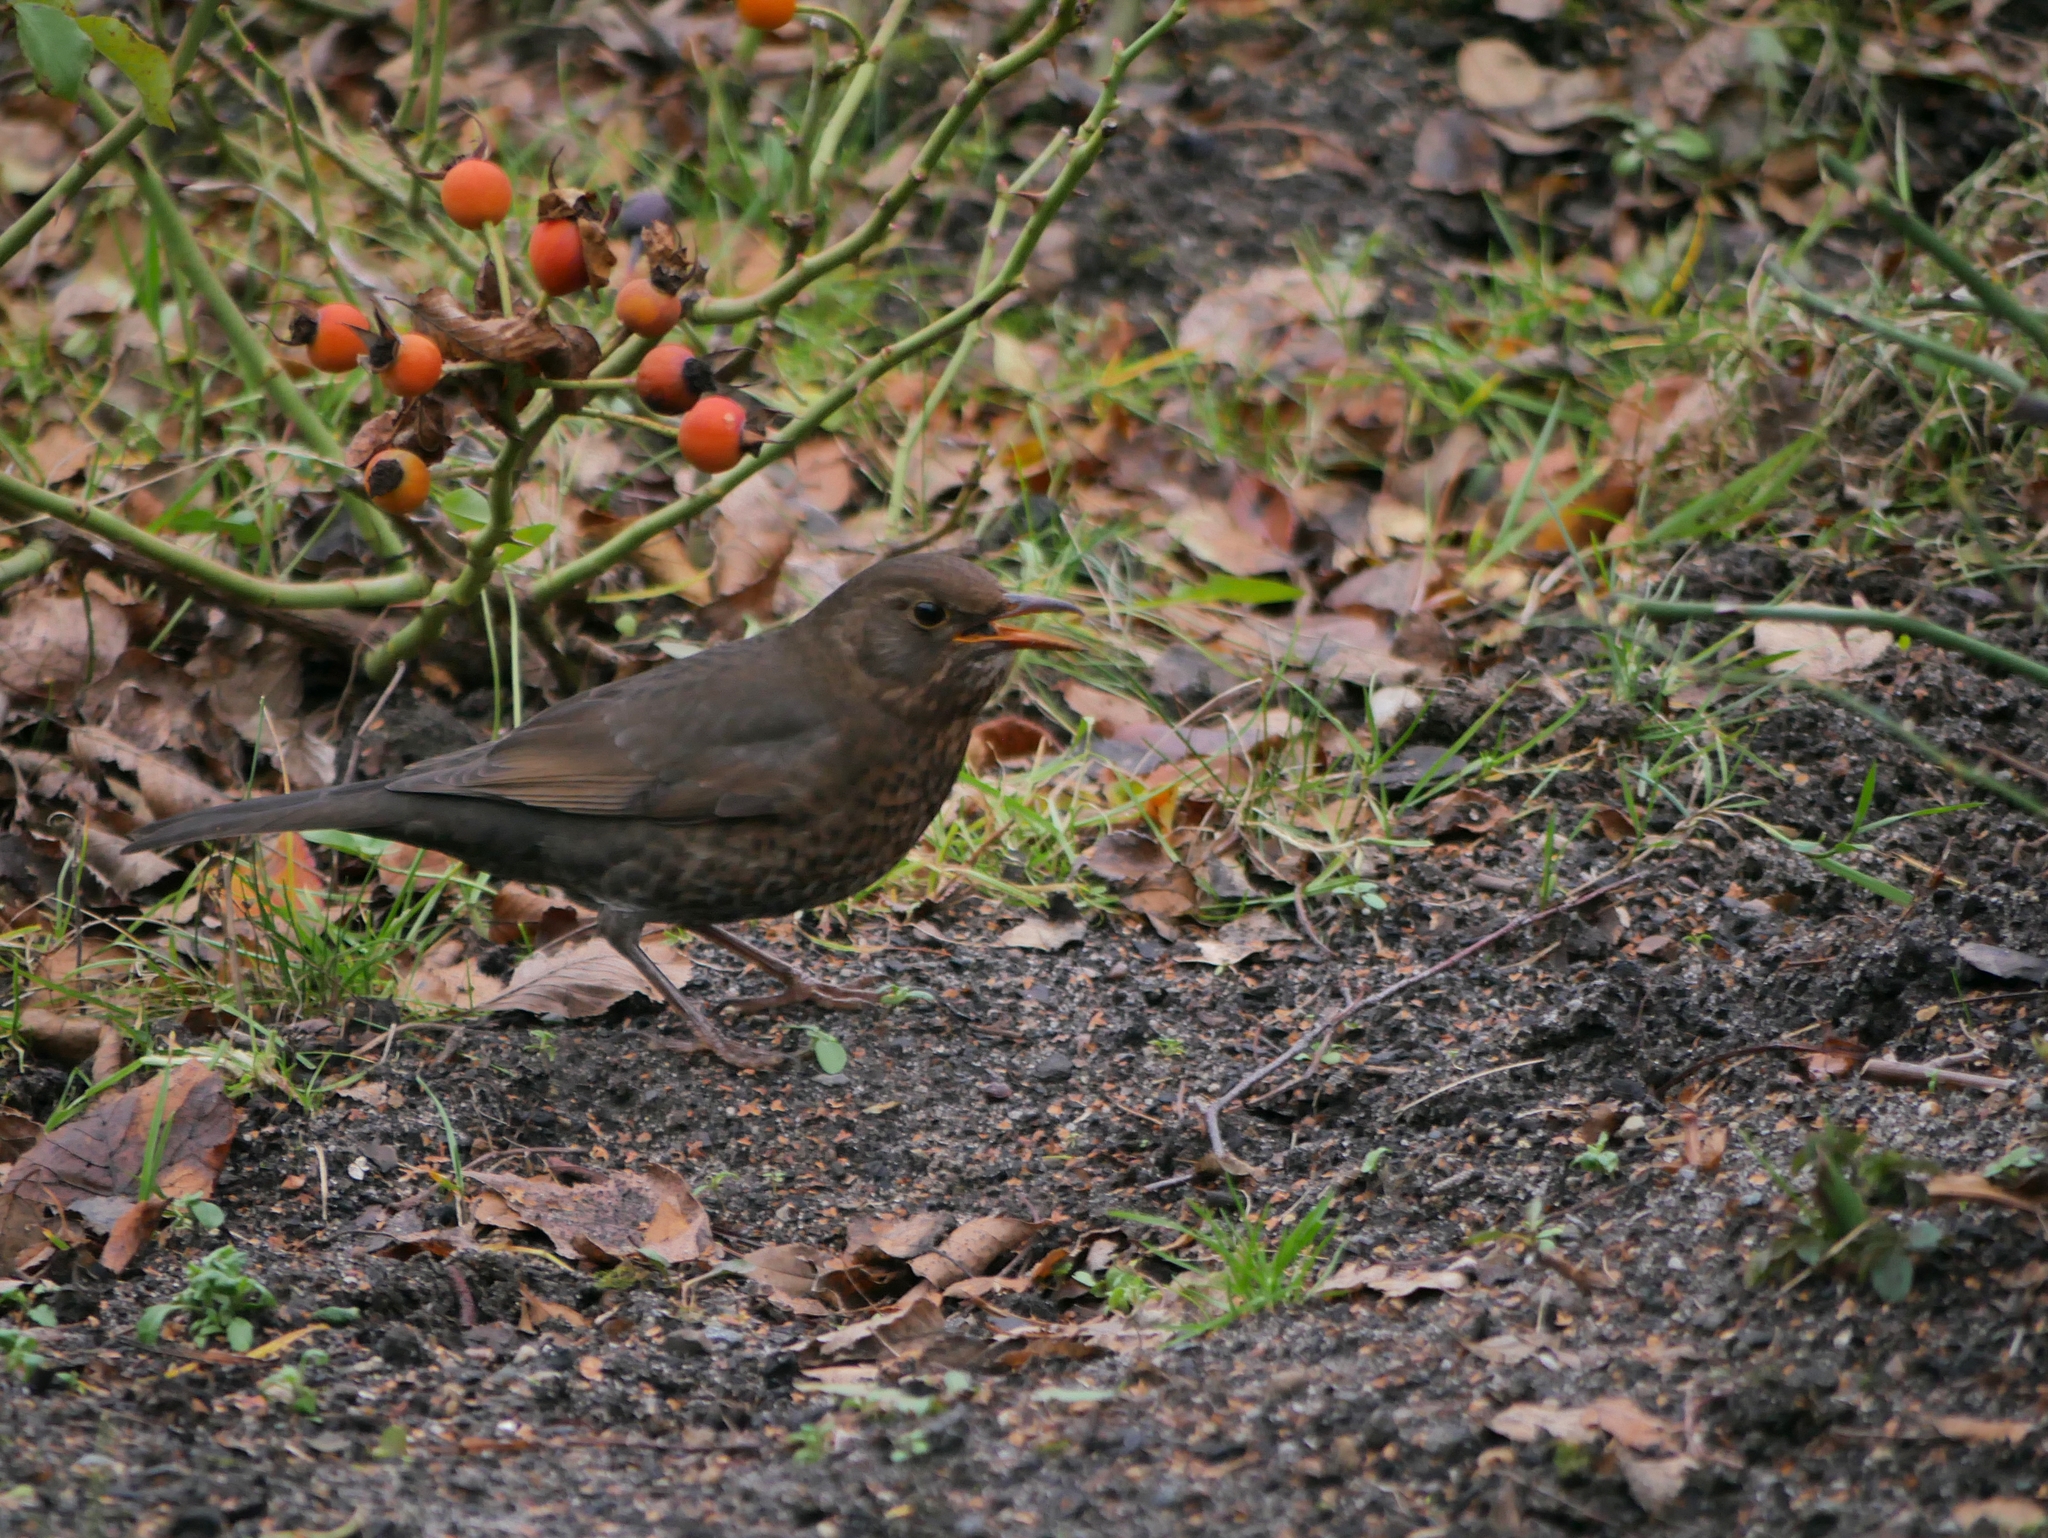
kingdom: Animalia
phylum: Chordata
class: Aves
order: Passeriformes
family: Turdidae
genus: Turdus
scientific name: Turdus merula
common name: Common blackbird
